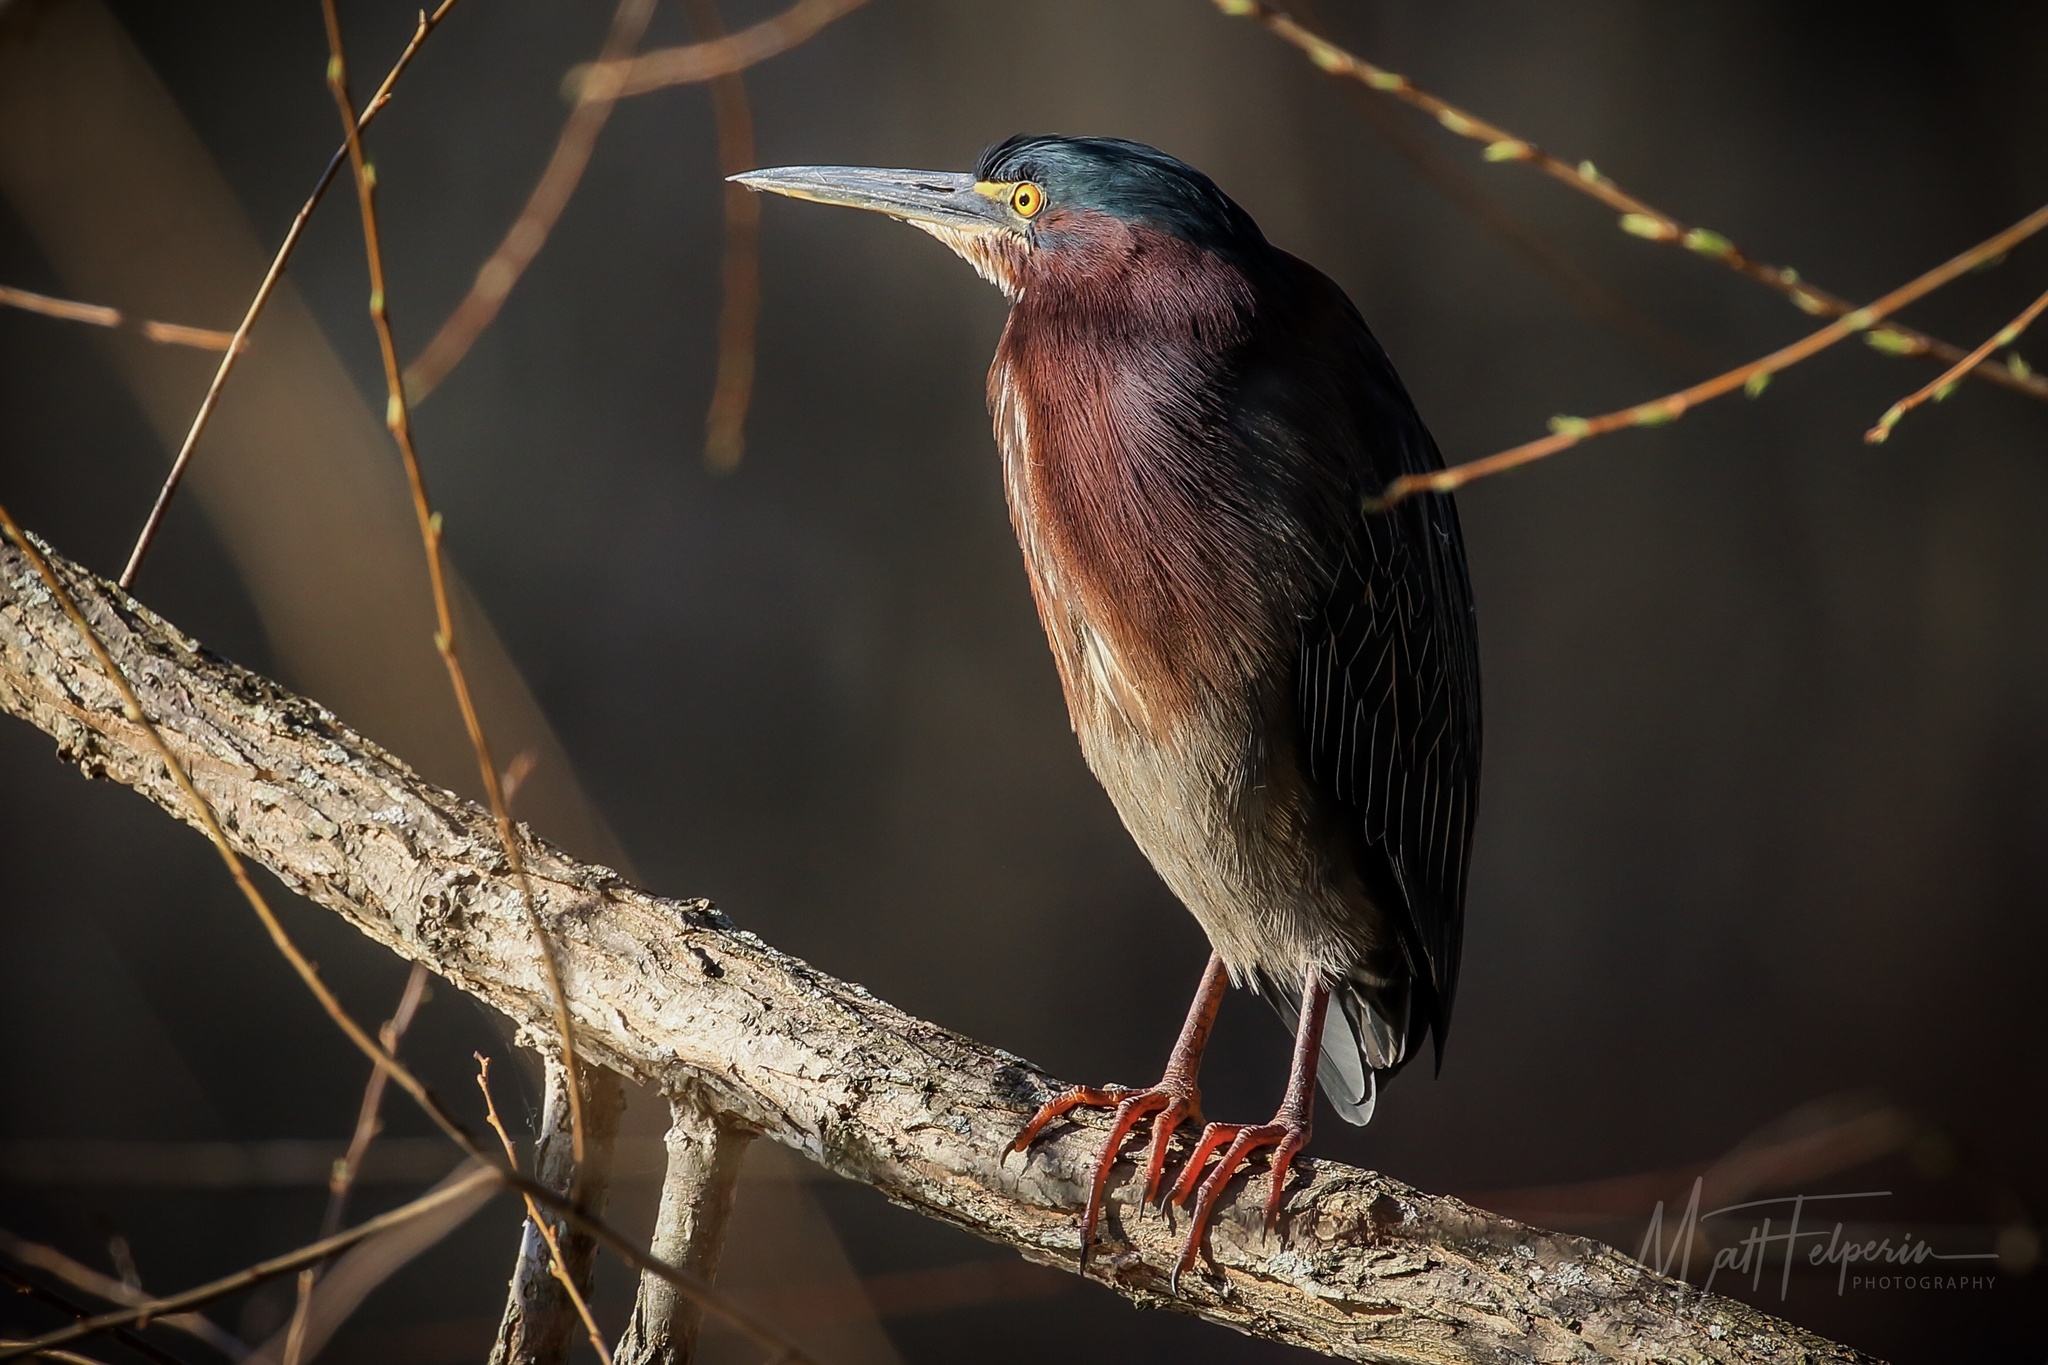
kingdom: Animalia
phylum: Chordata
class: Aves
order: Pelecaniformes
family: Ardeidae
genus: Butorides
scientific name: Butorides virescens
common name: Green heron
